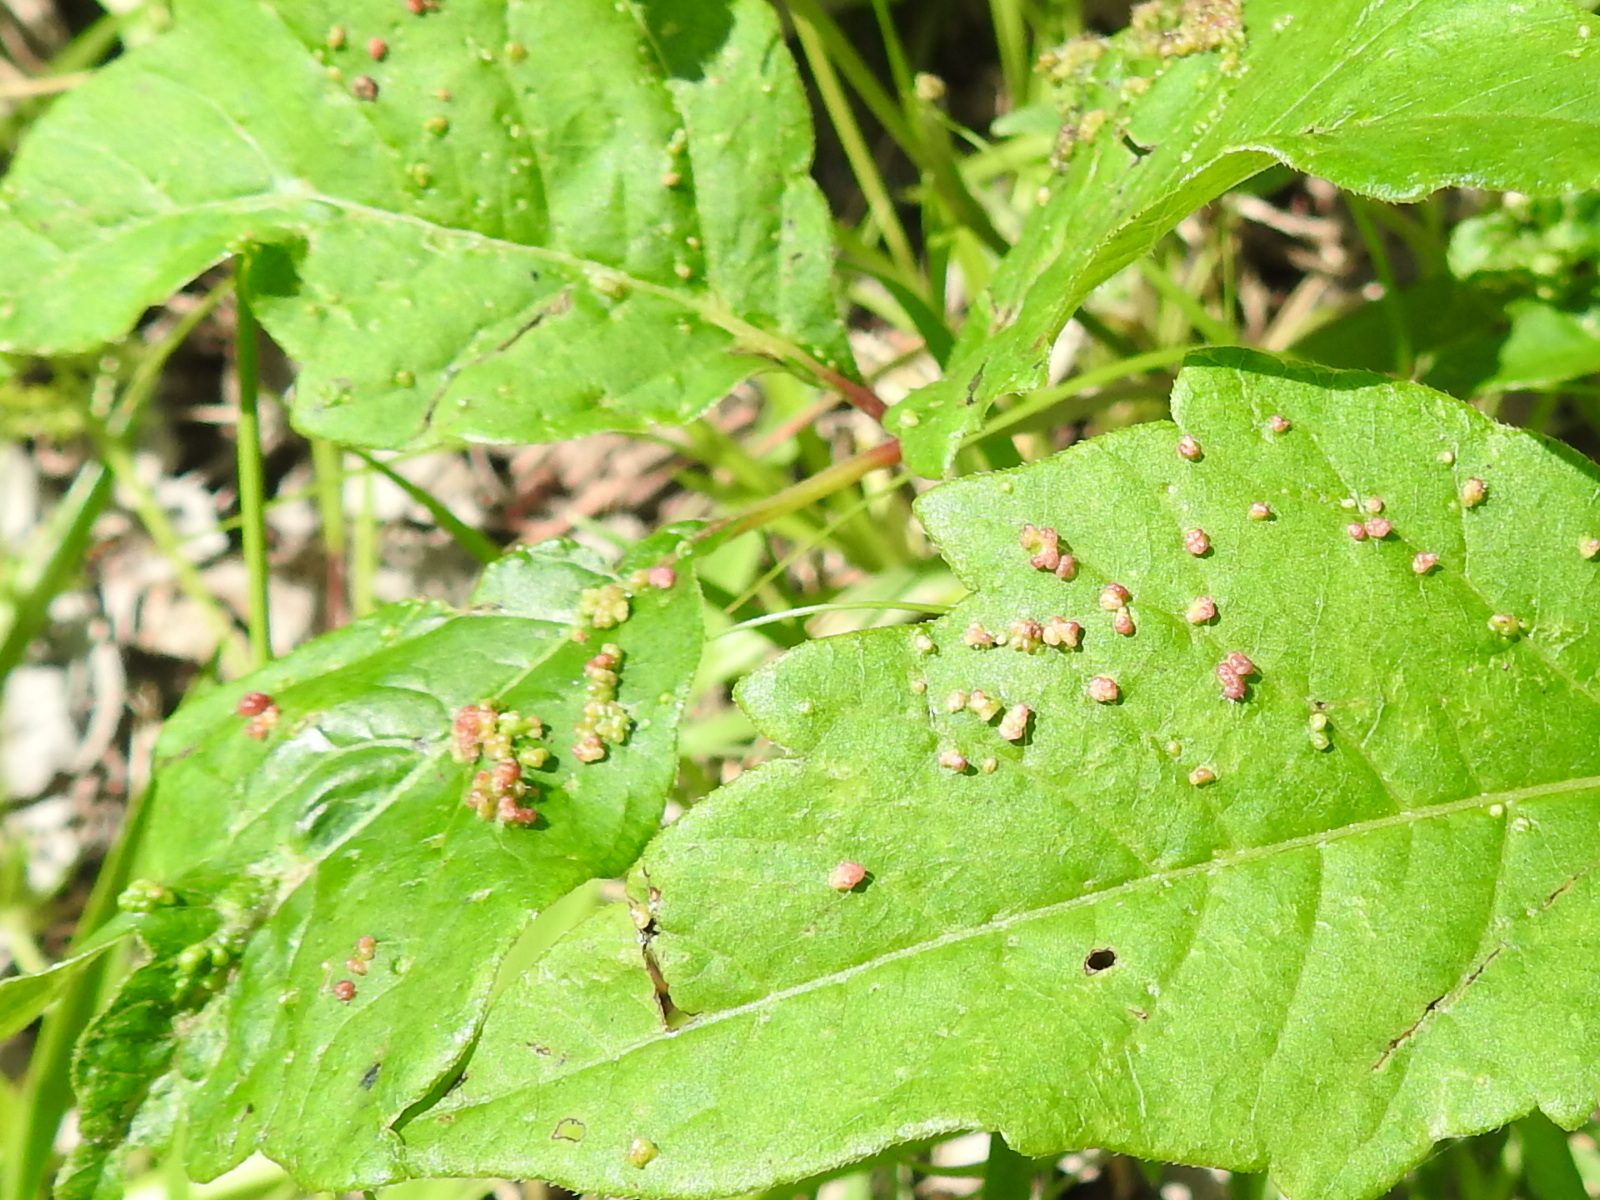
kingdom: Animalia
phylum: Arthropoda
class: Arachnida
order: Trombidiformes
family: Eriophyidae
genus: Aculops
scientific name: Aculops
